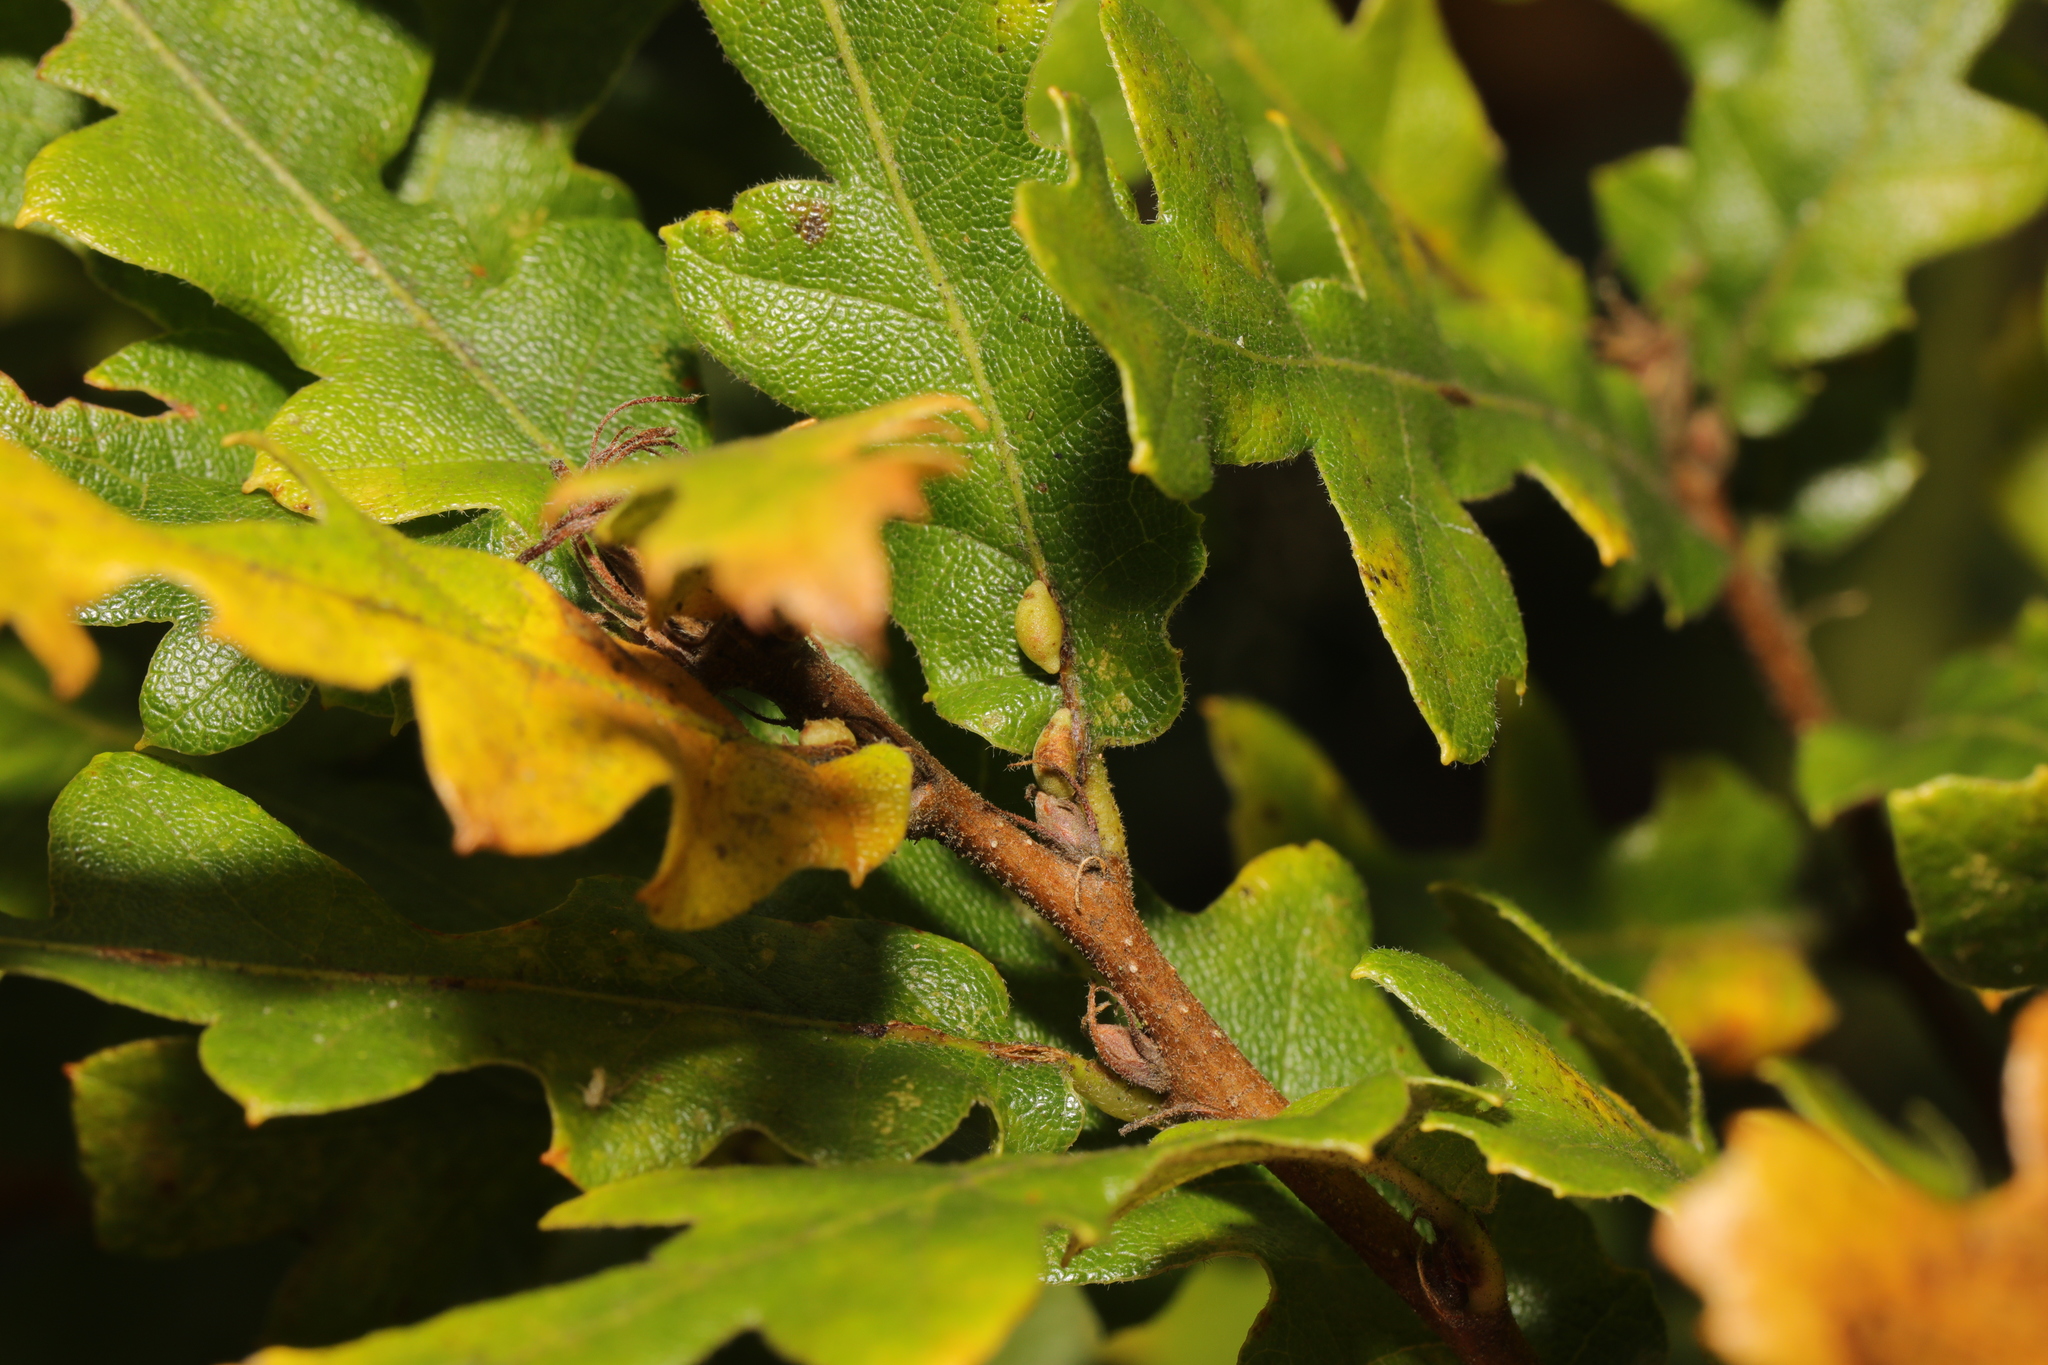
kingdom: Animalia
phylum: Arthropoda
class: Insecta
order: Hymenoptera
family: Cynipidae
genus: Neuroterus
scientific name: Neuroterus saliens
